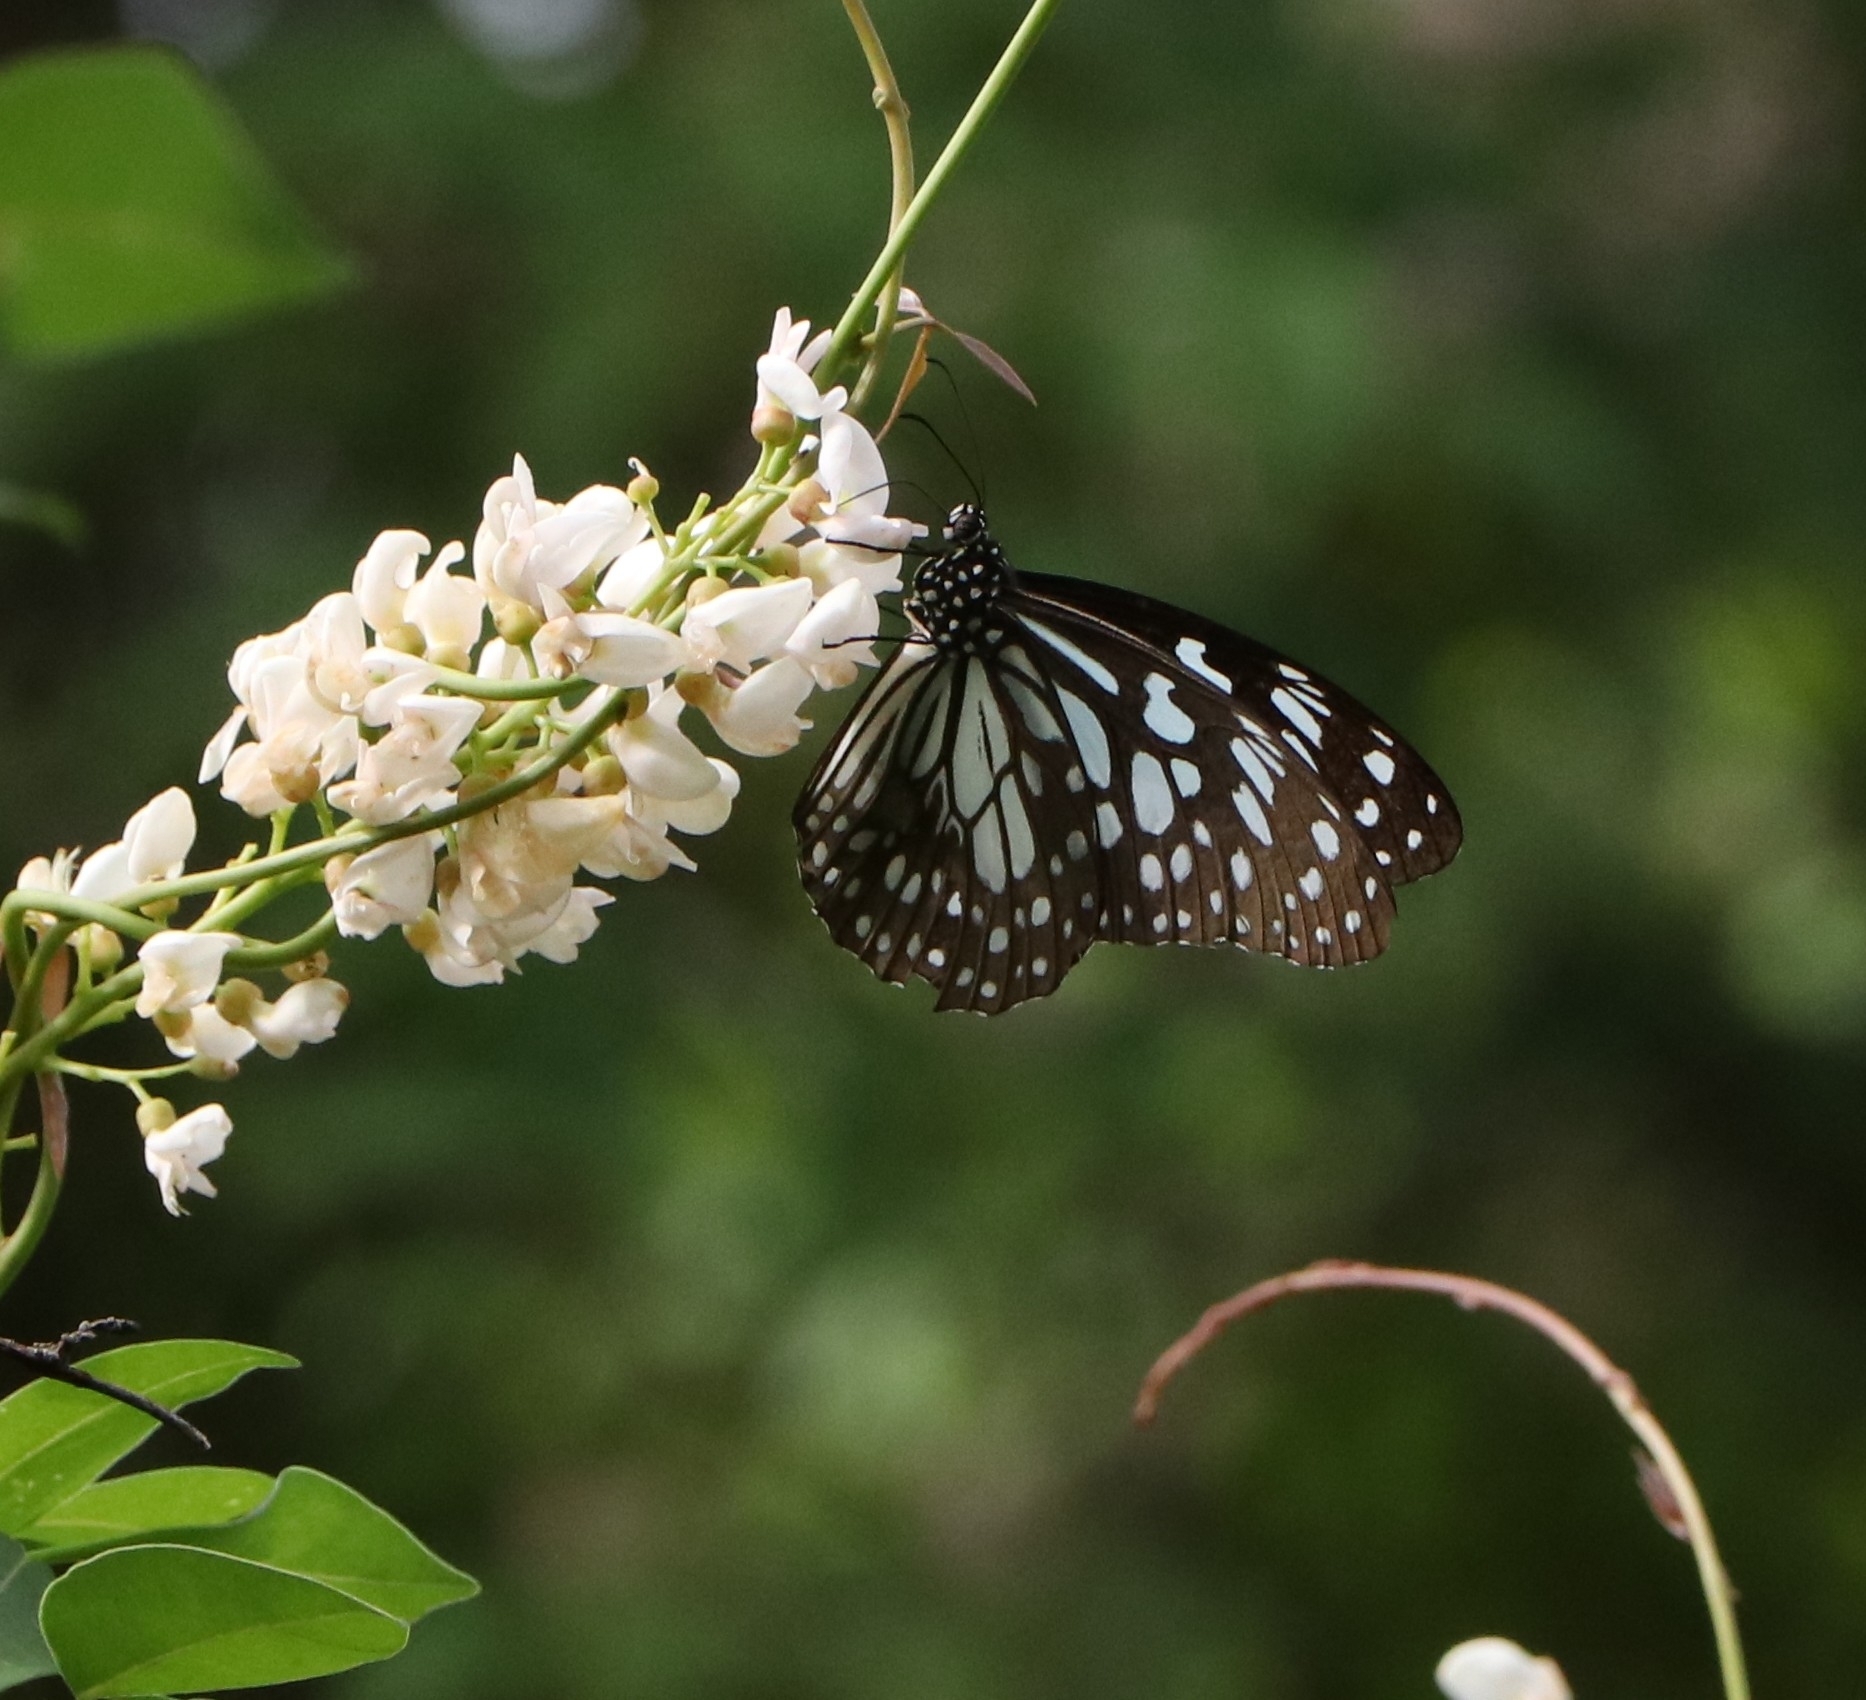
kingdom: Animalia
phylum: Arthropoda
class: Insecta
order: Lepidoptera
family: Nymphalidae
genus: Tirumala
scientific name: Tirumala limniace
